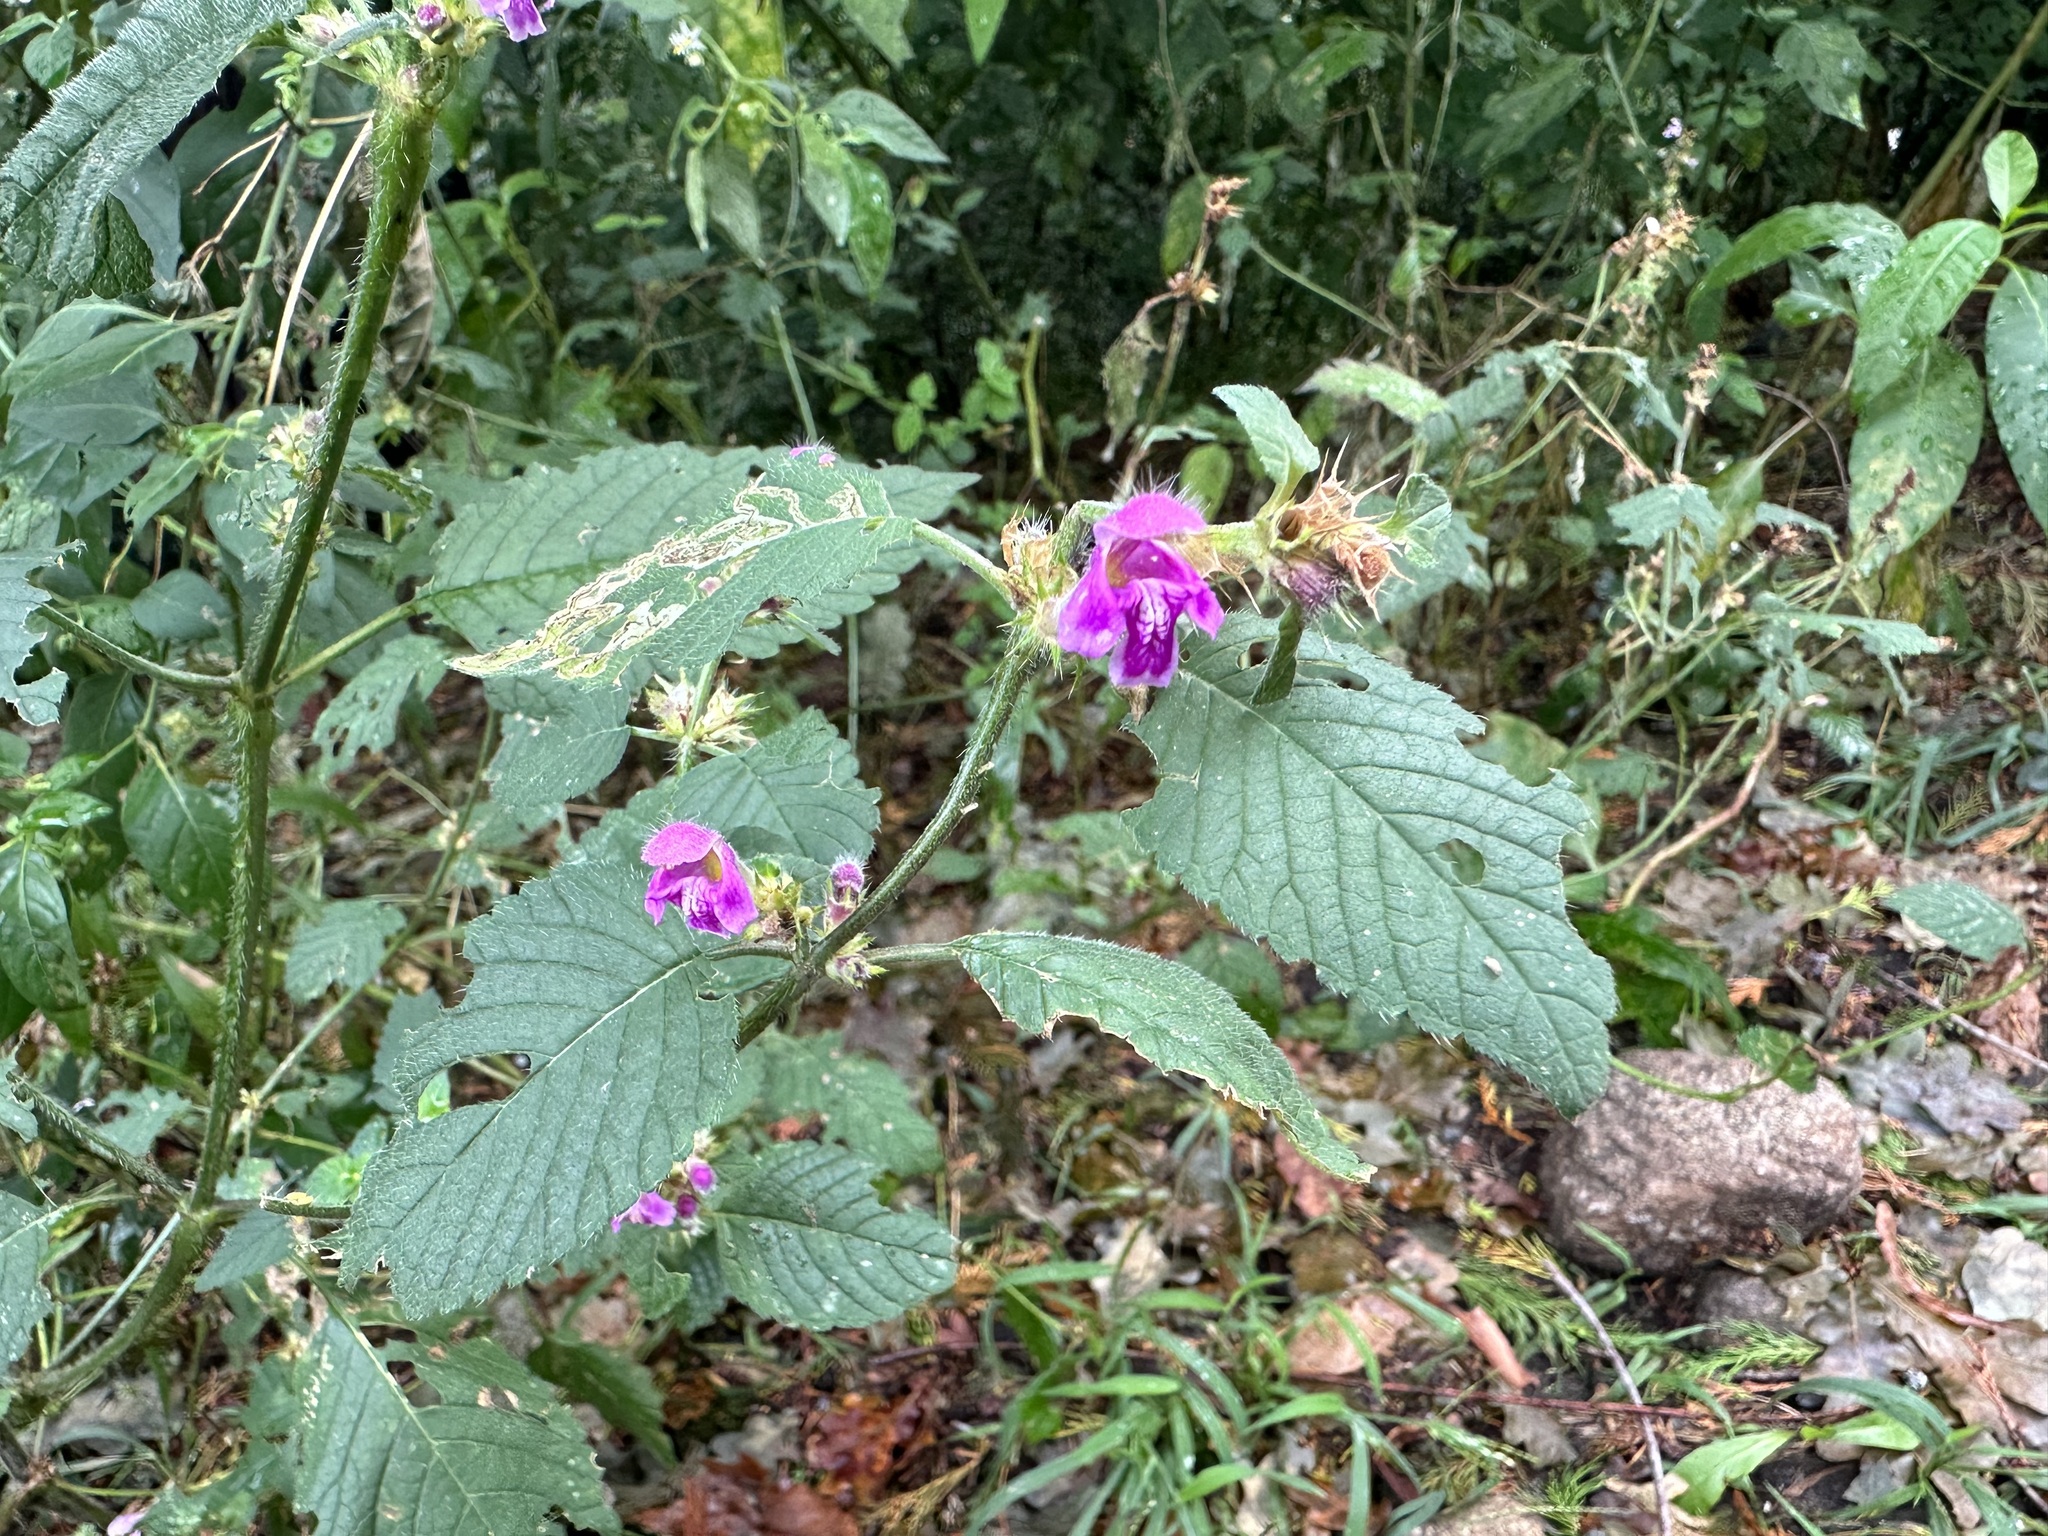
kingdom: Plantae
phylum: Tracheophyta
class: Magnoliopsida
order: Lamiales
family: Lamiaceae
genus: Galeopsis
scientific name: Galeopsis pubescens
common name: Downy hemp-nettle
